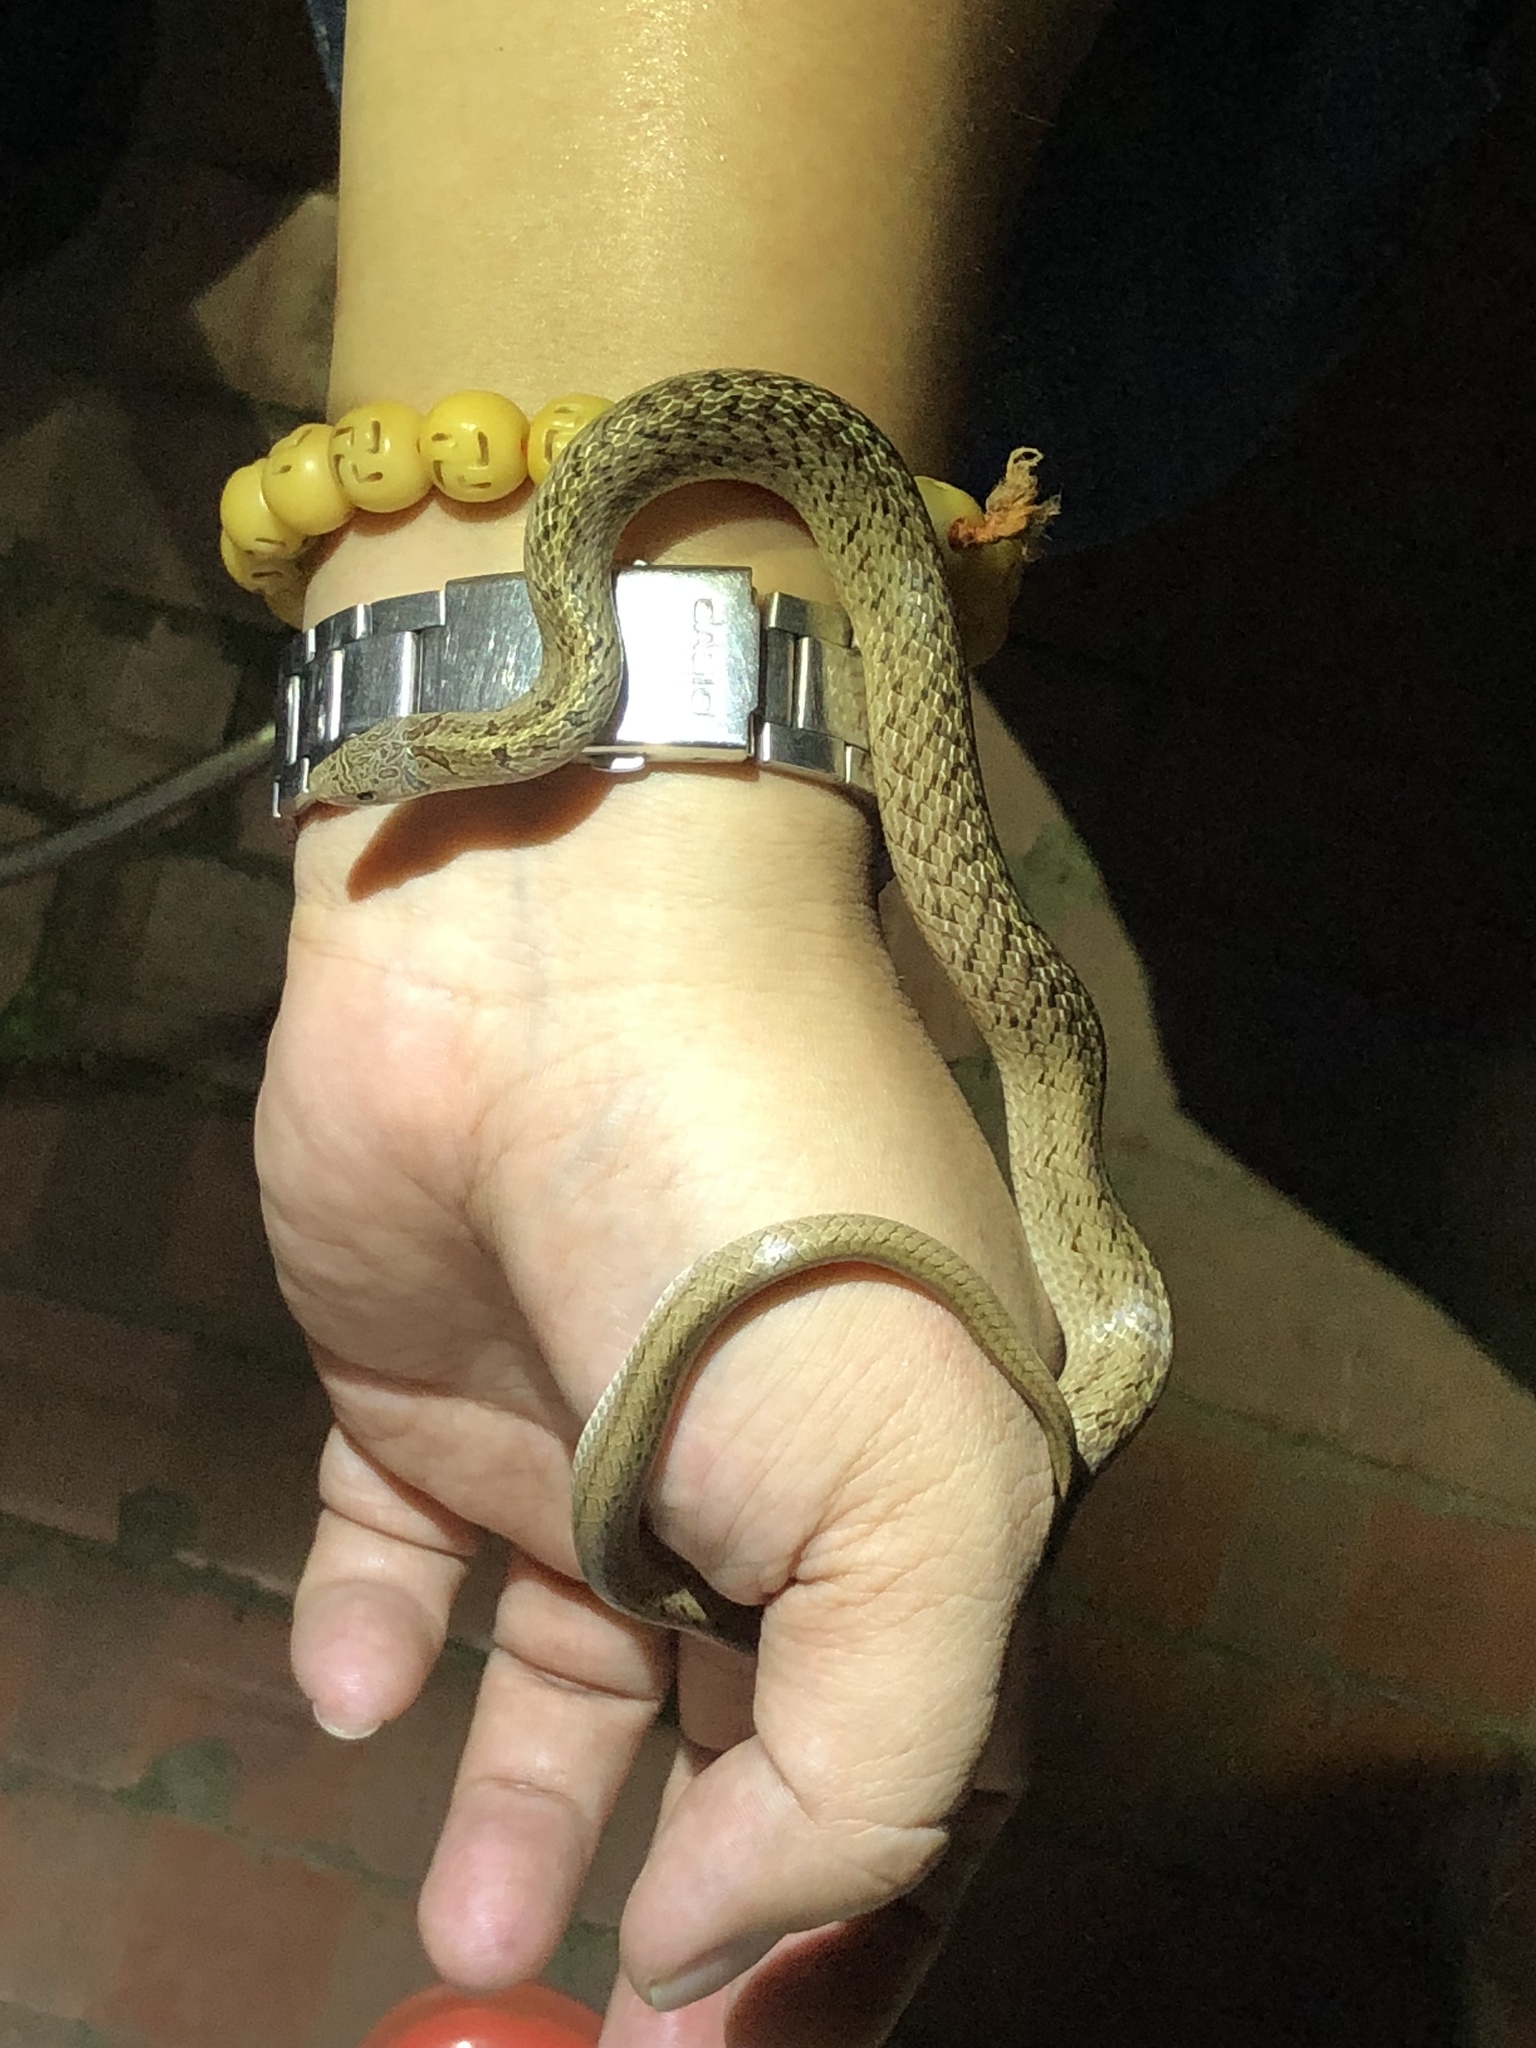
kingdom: Animalia
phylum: Chordata
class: Squamata
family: Colubridae
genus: Oligodon
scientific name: Oligodon formosanus
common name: Formosa kukri snake
